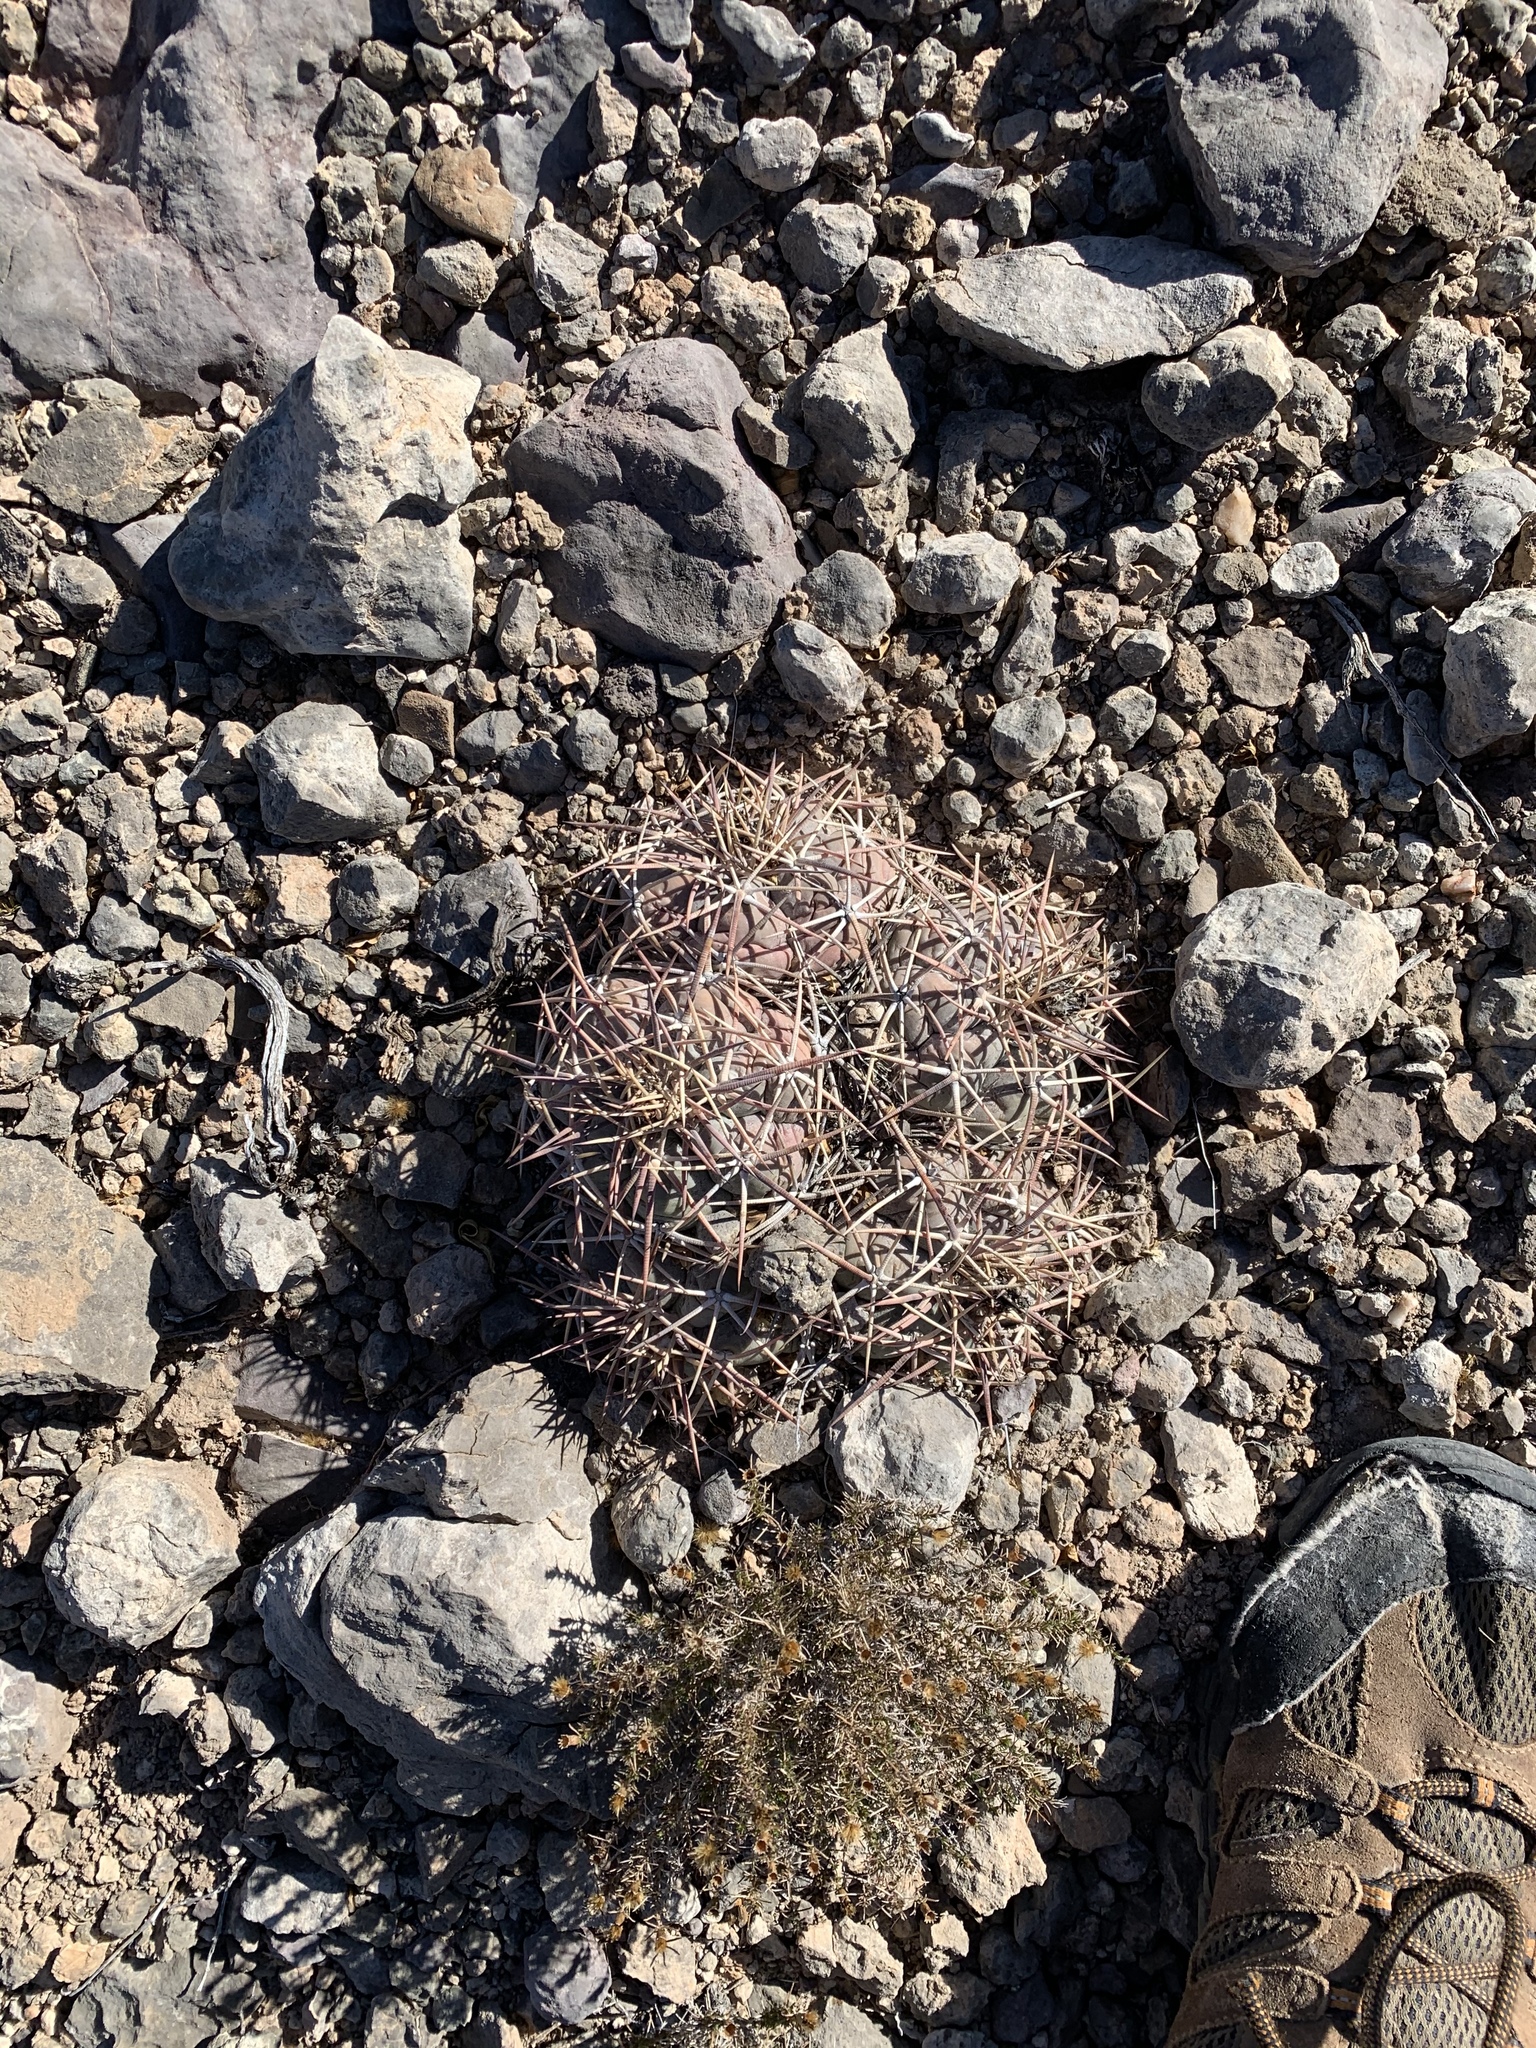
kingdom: Plantae
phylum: Tracheophyta
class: Magnoliopsida
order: Caryophyllales
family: Cactaceae
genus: Echinocactus
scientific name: Echinocactus horizonthalonius
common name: Devilshead
